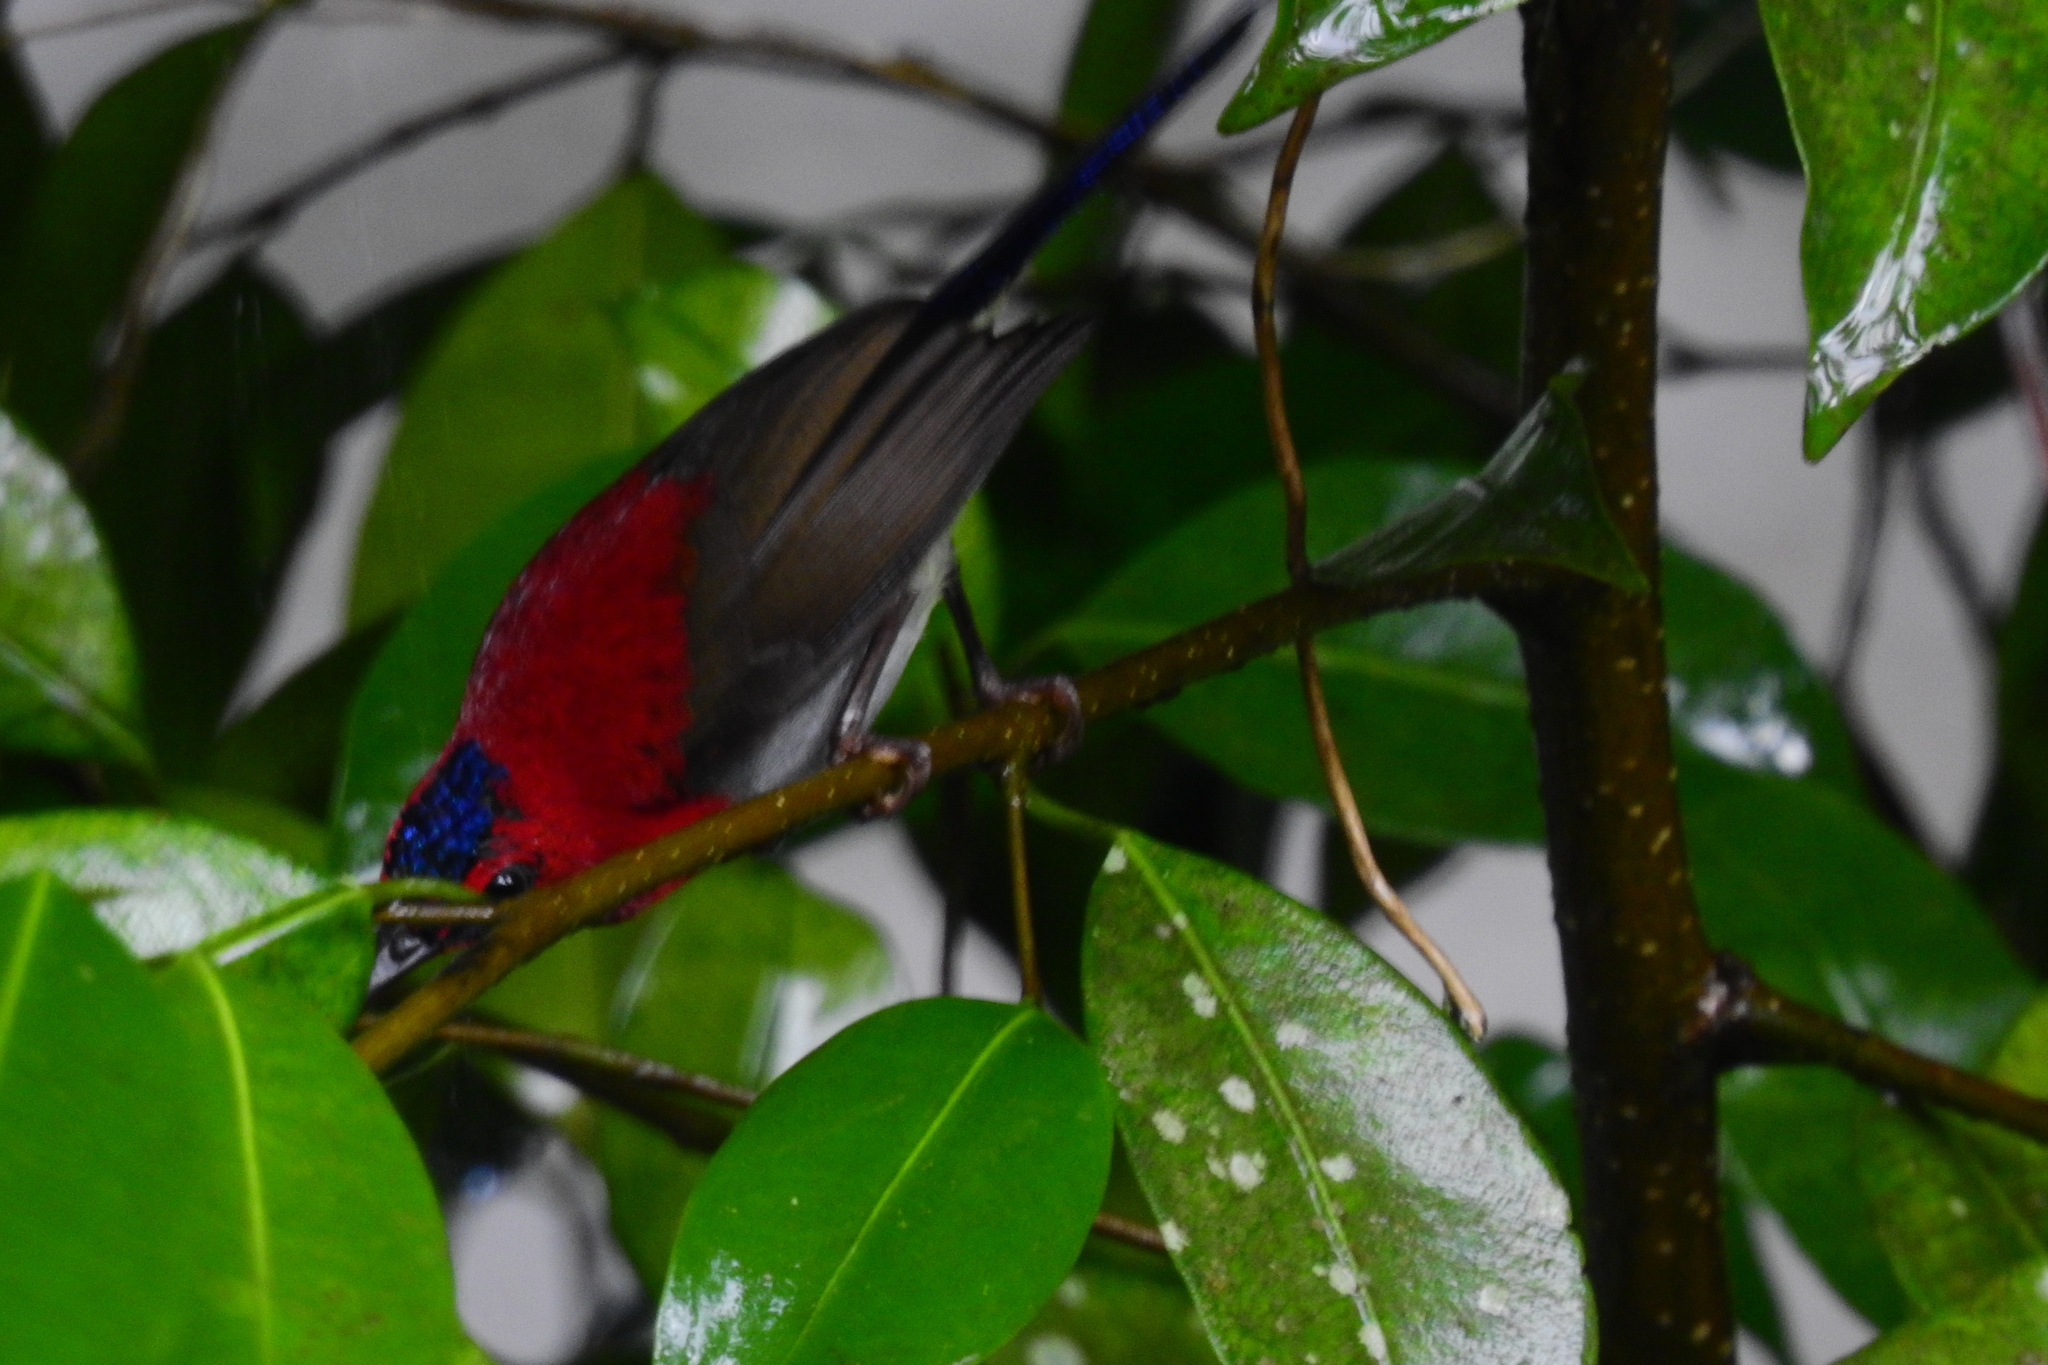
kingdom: Animalia
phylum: Chordata
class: Aves
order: Passeriformes
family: Nectariniidae
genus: Aethopyga
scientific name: Aethopyga mystacalis
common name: Javan sunbird
